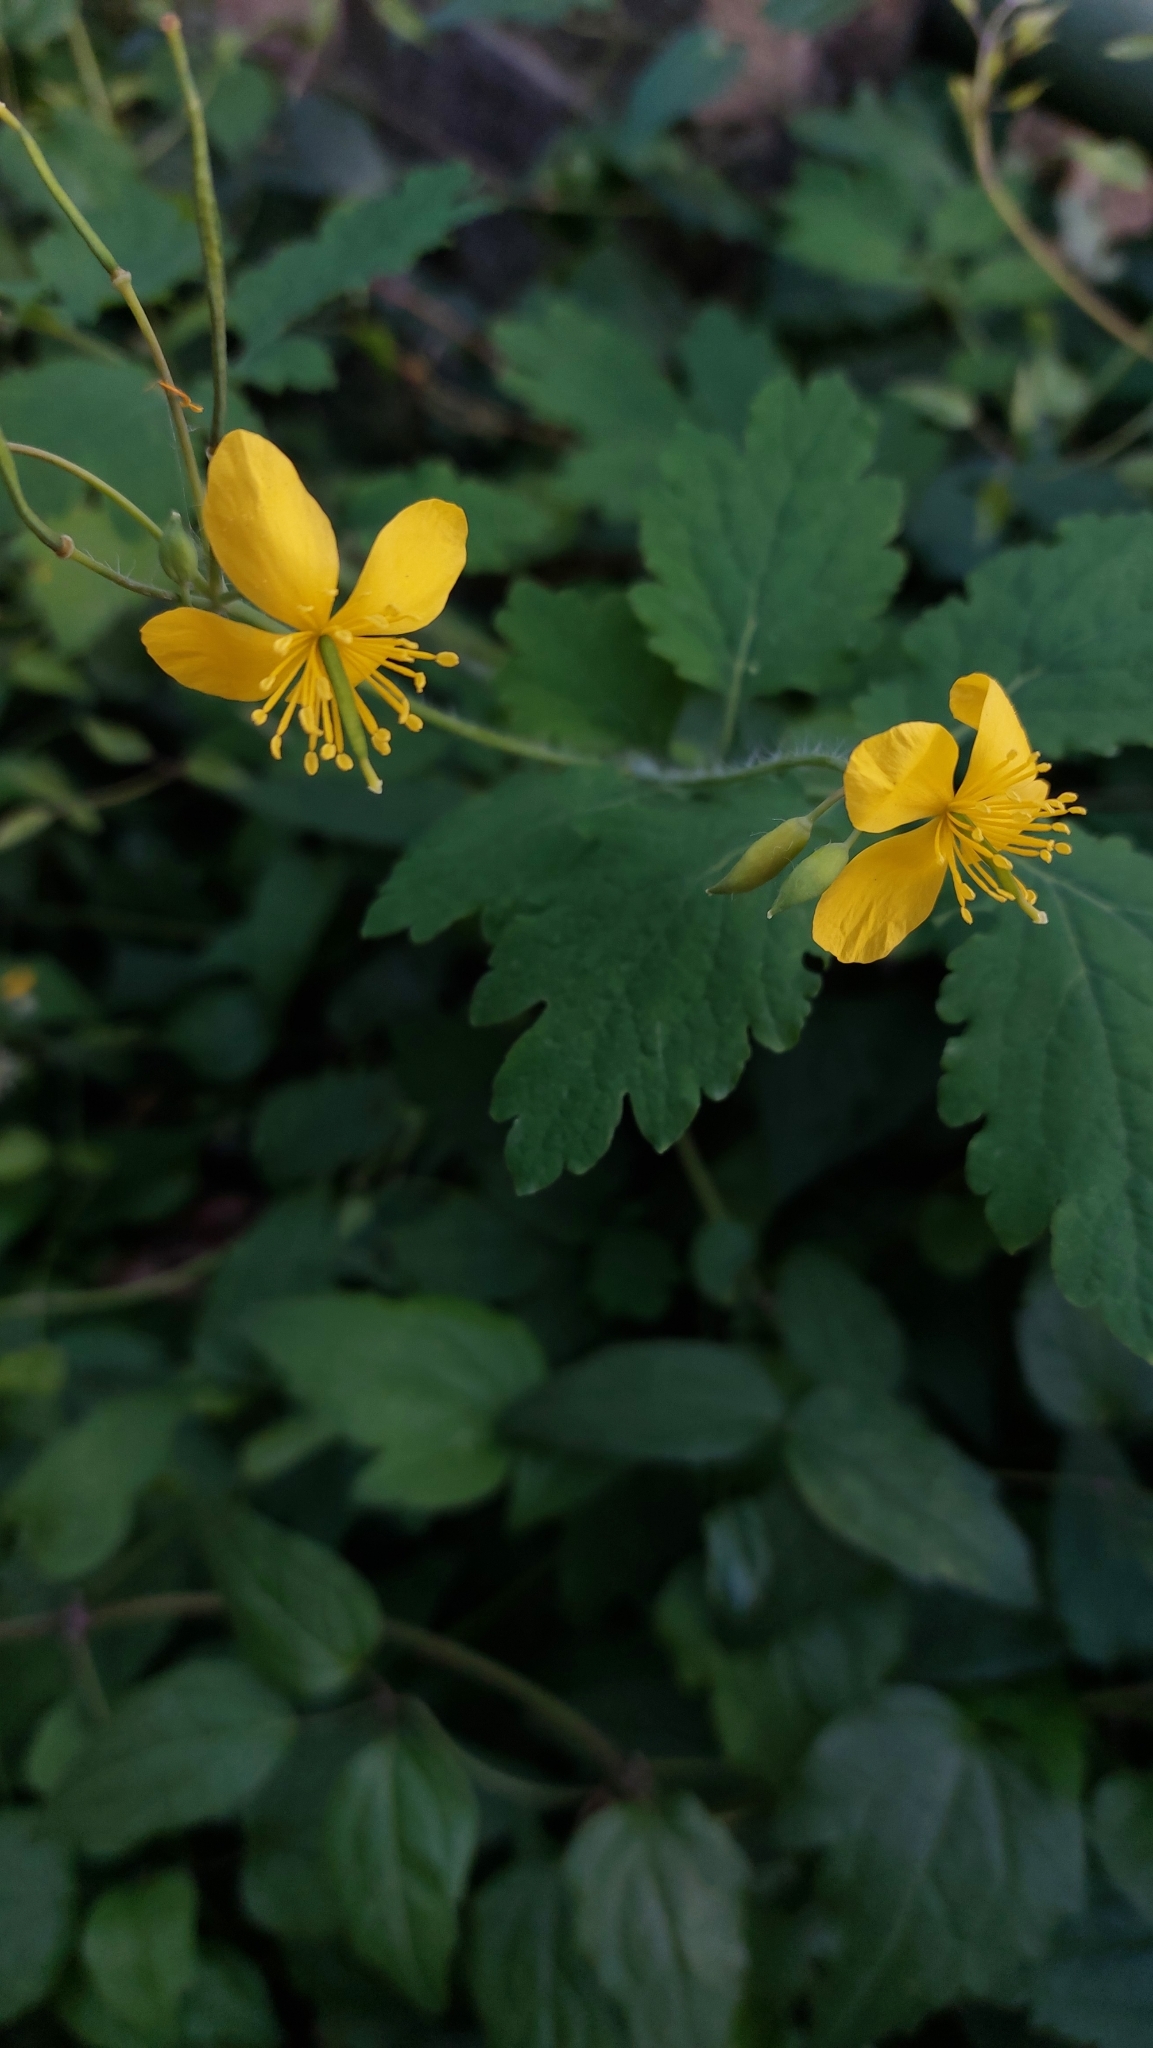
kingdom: Plantae
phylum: Tracheophyta
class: Magnoliopsida
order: Ranunculales
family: Papaveraceae
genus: Chelidonium
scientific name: Chelidonium majus
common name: Greater celandine
